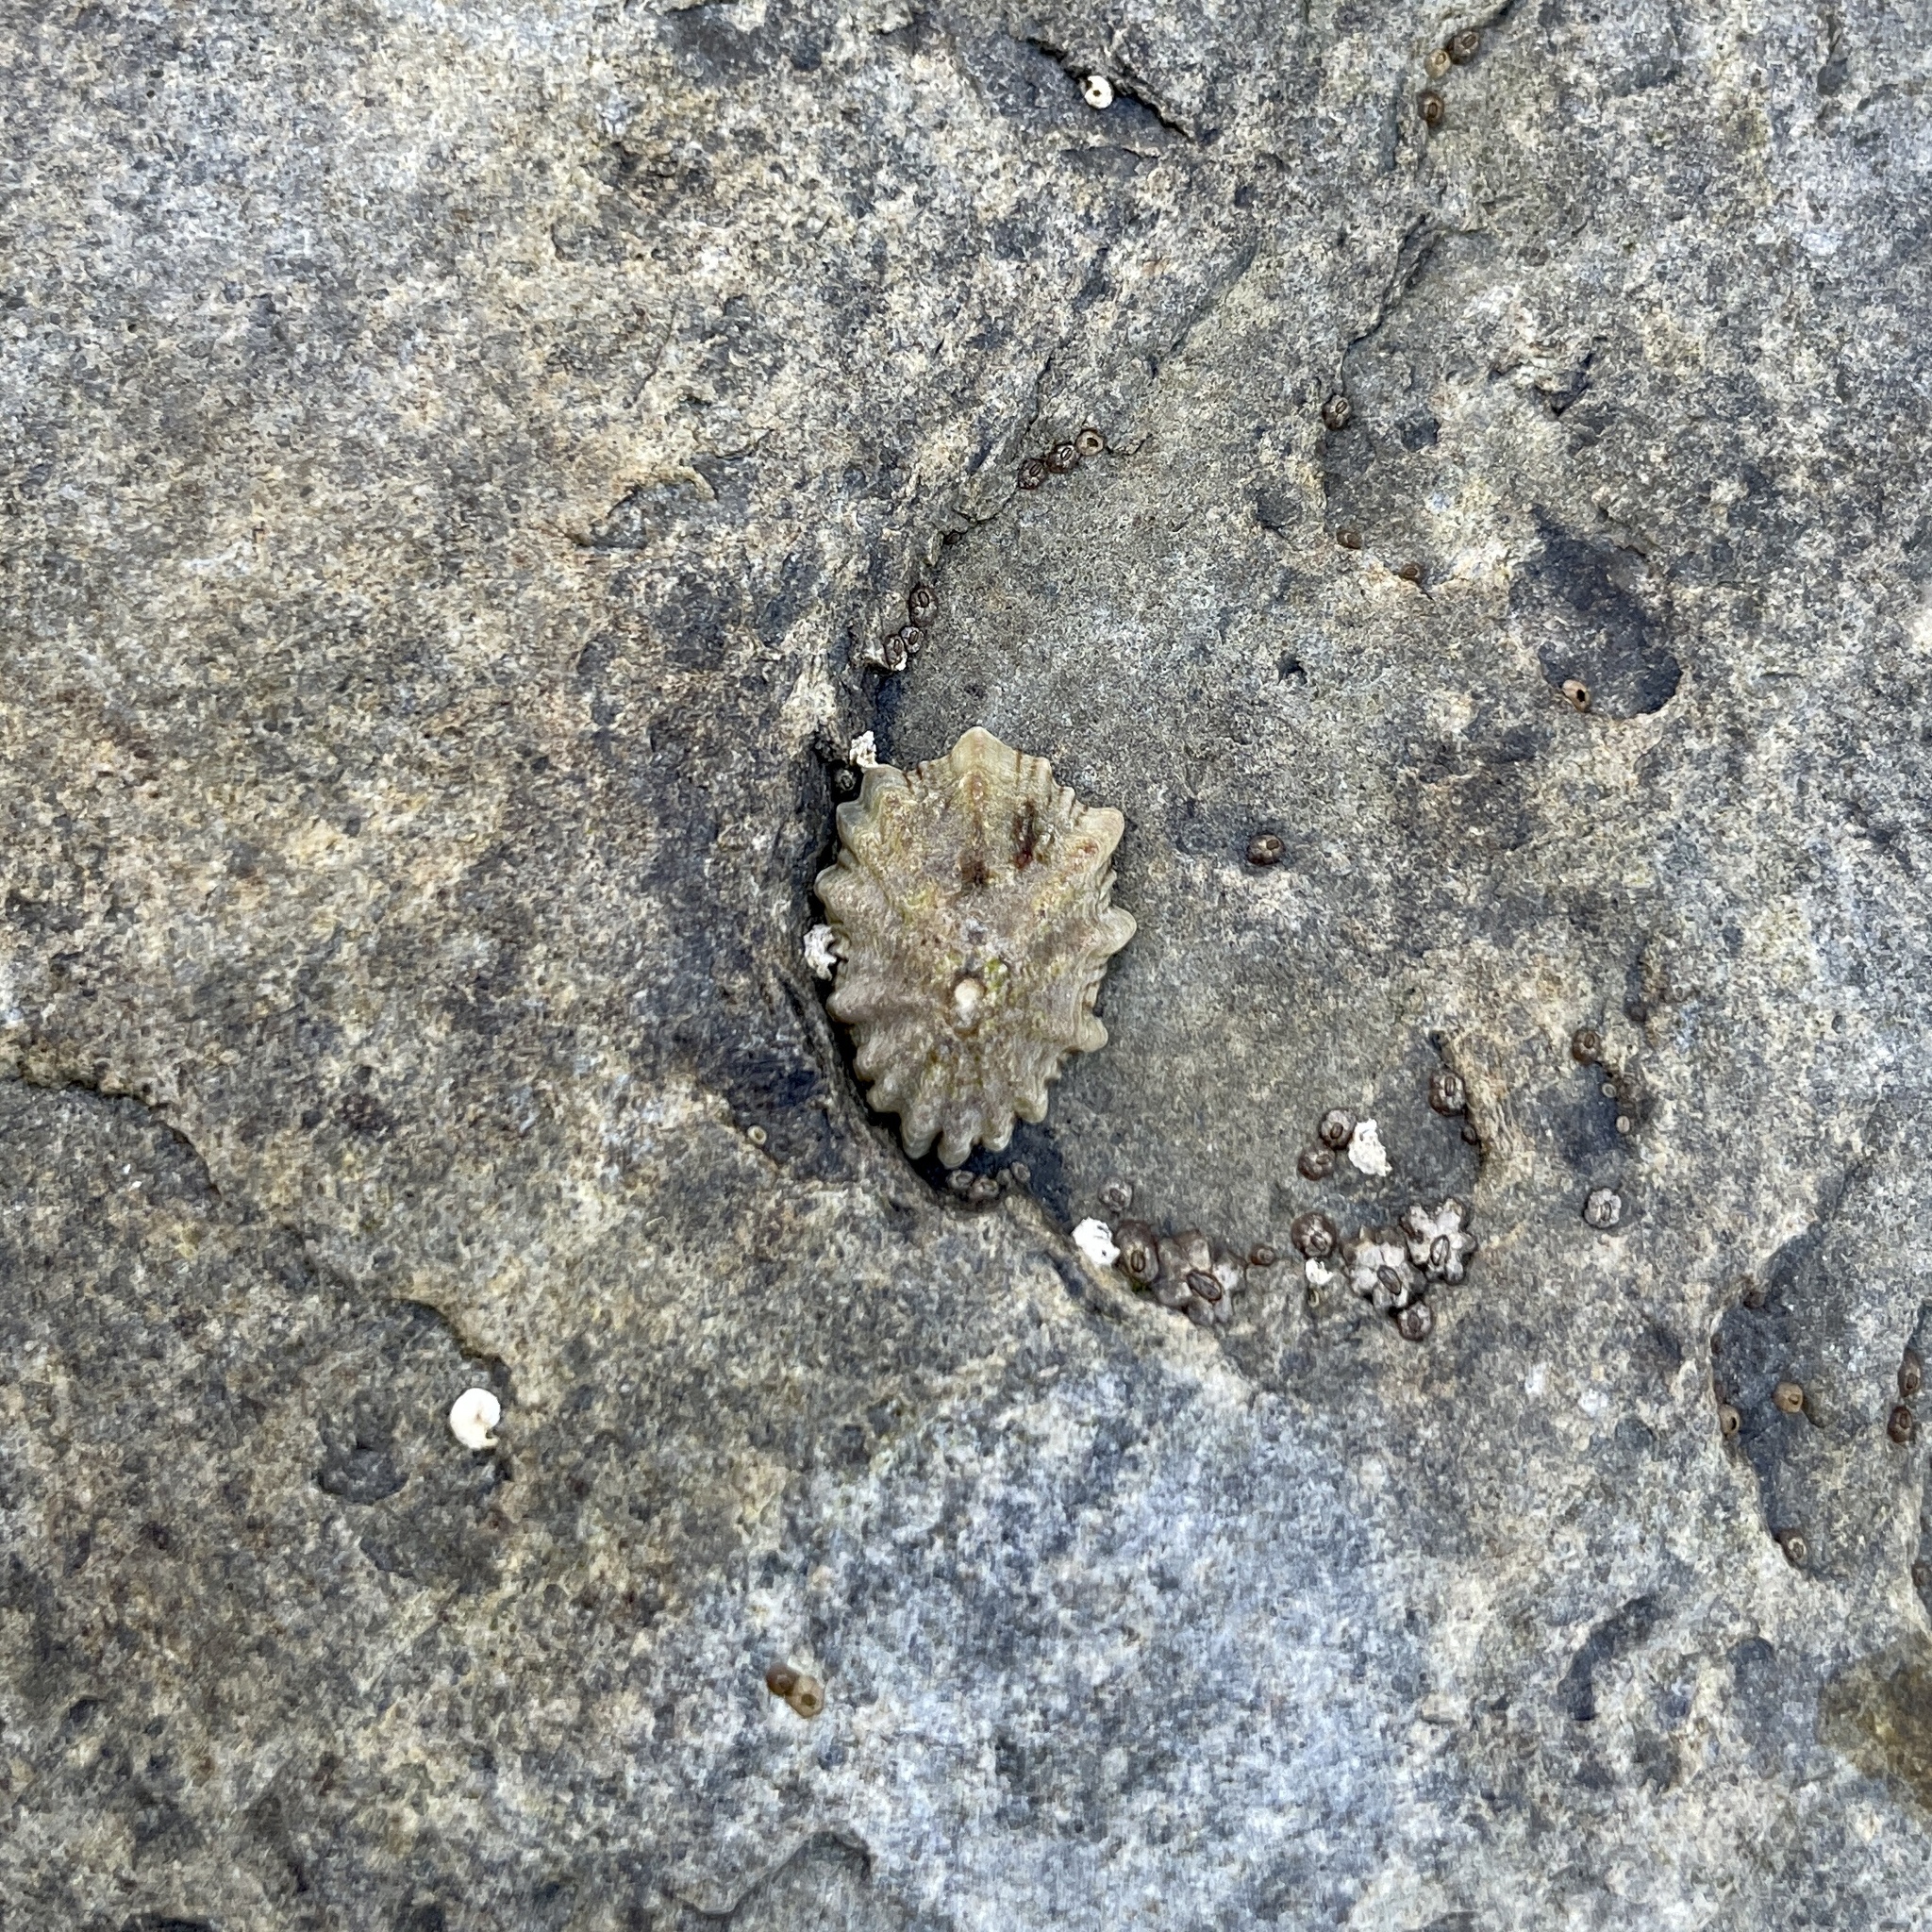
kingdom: Animalia
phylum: Mollusca
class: Gastropoda
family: Lottiidae
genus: Lottia
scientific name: Lottia scabra
